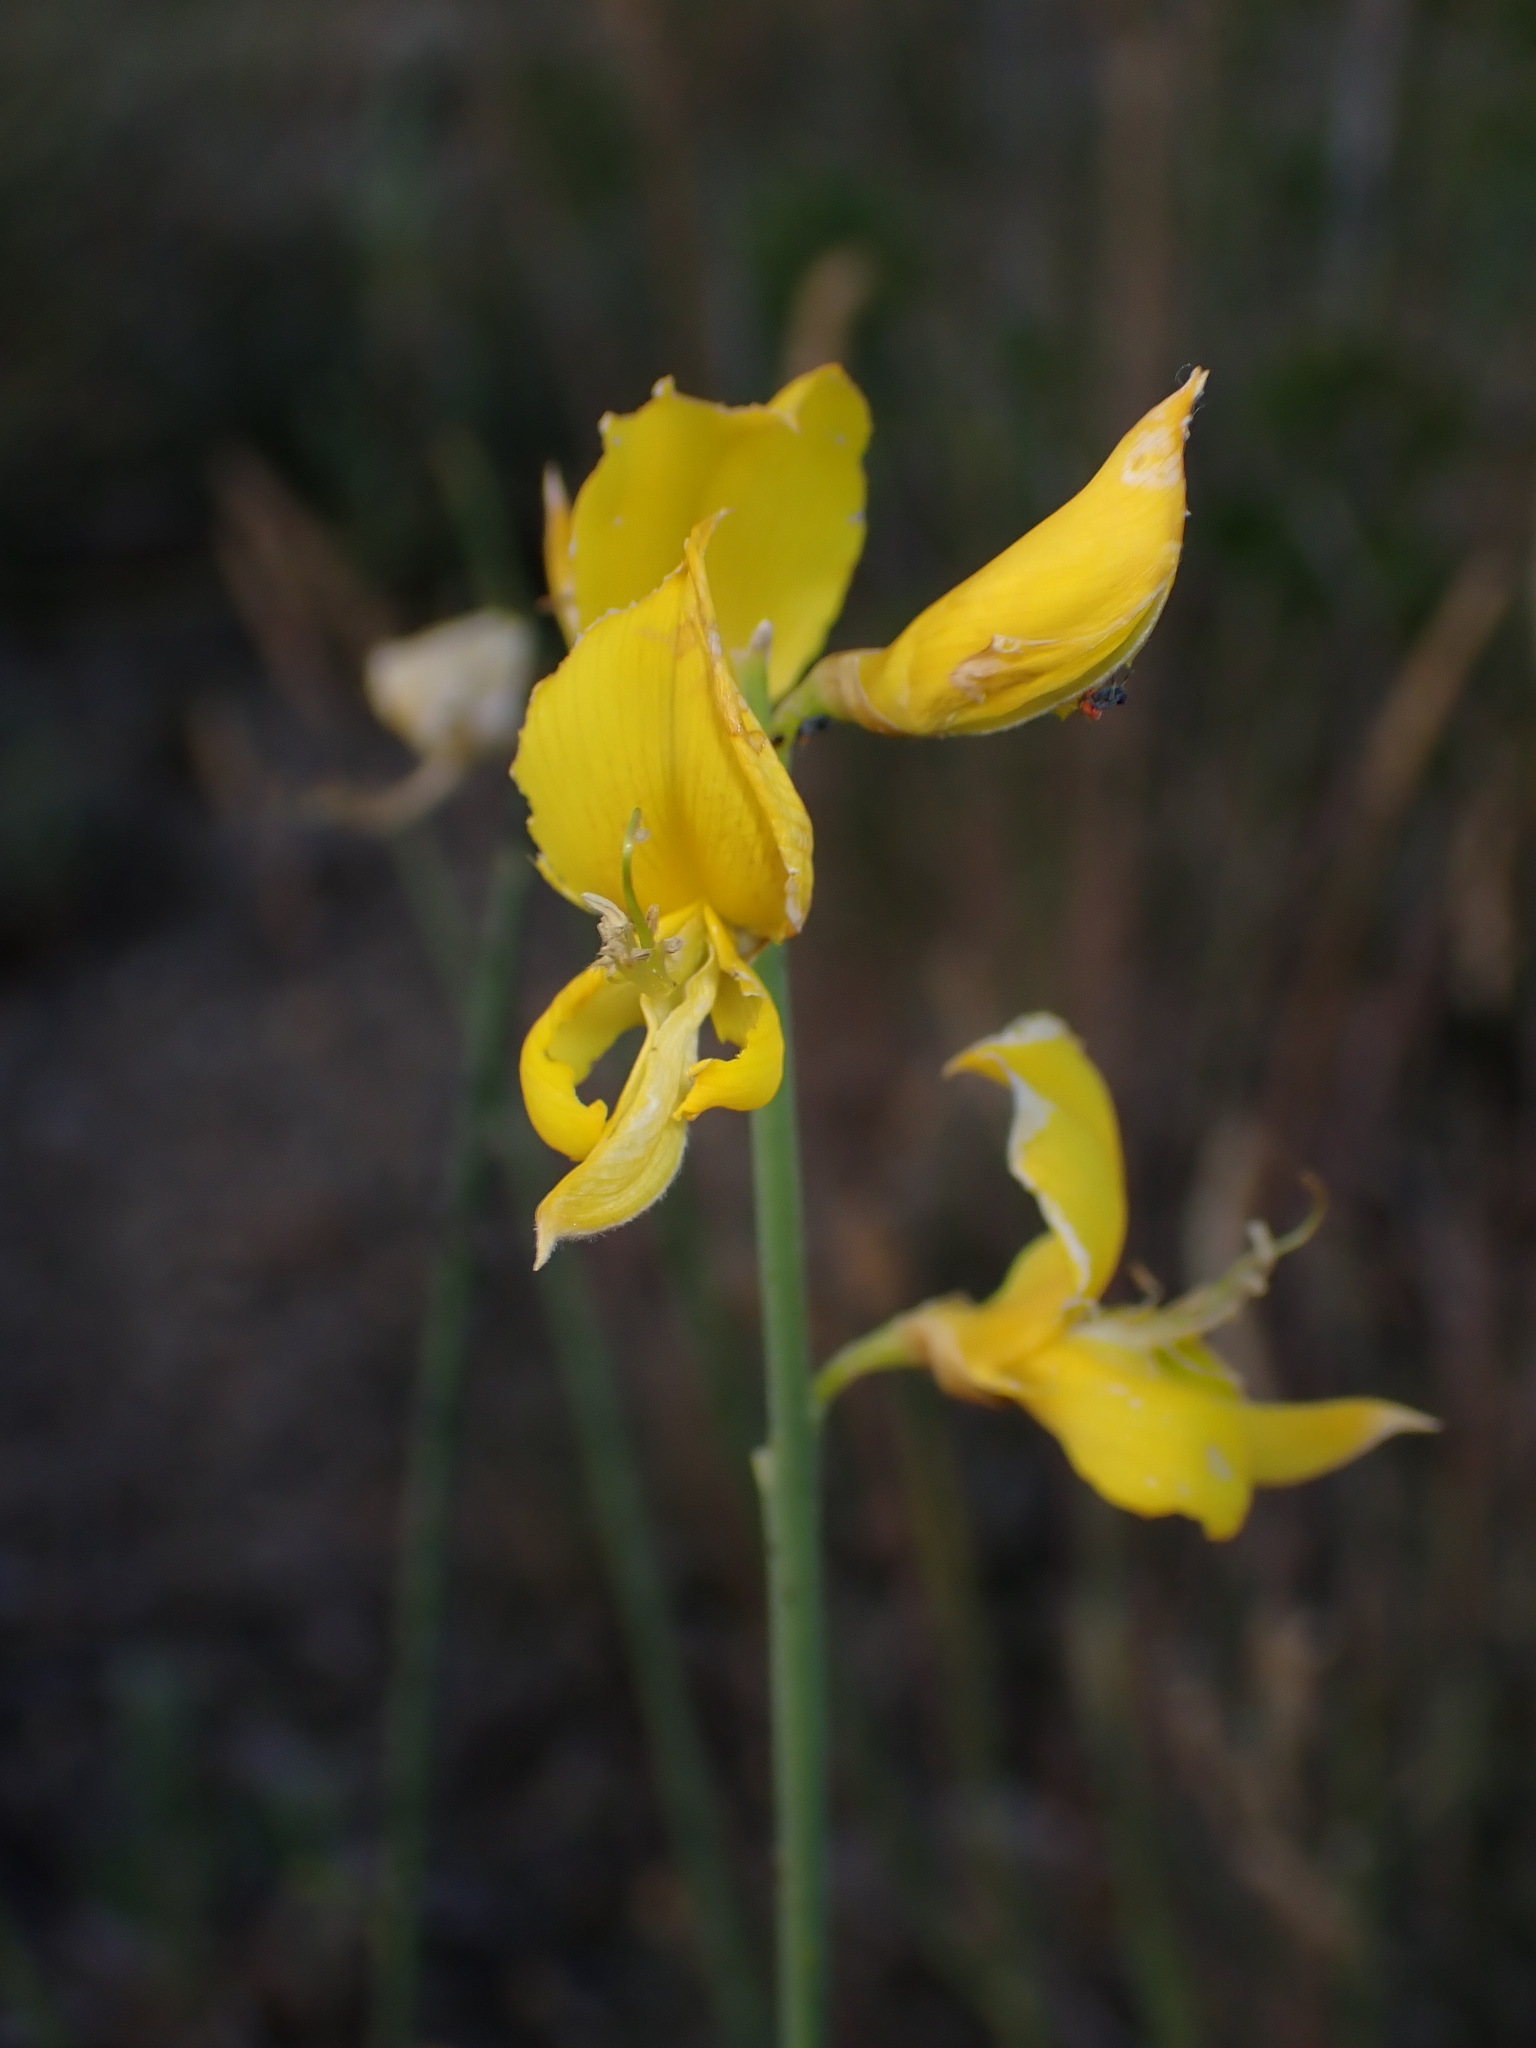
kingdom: Plantae
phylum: Tracheophyta
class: Magnoliopsida
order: Fabales
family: Fabaceae
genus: Spartium
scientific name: Spartium junceum
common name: Spanish broom
